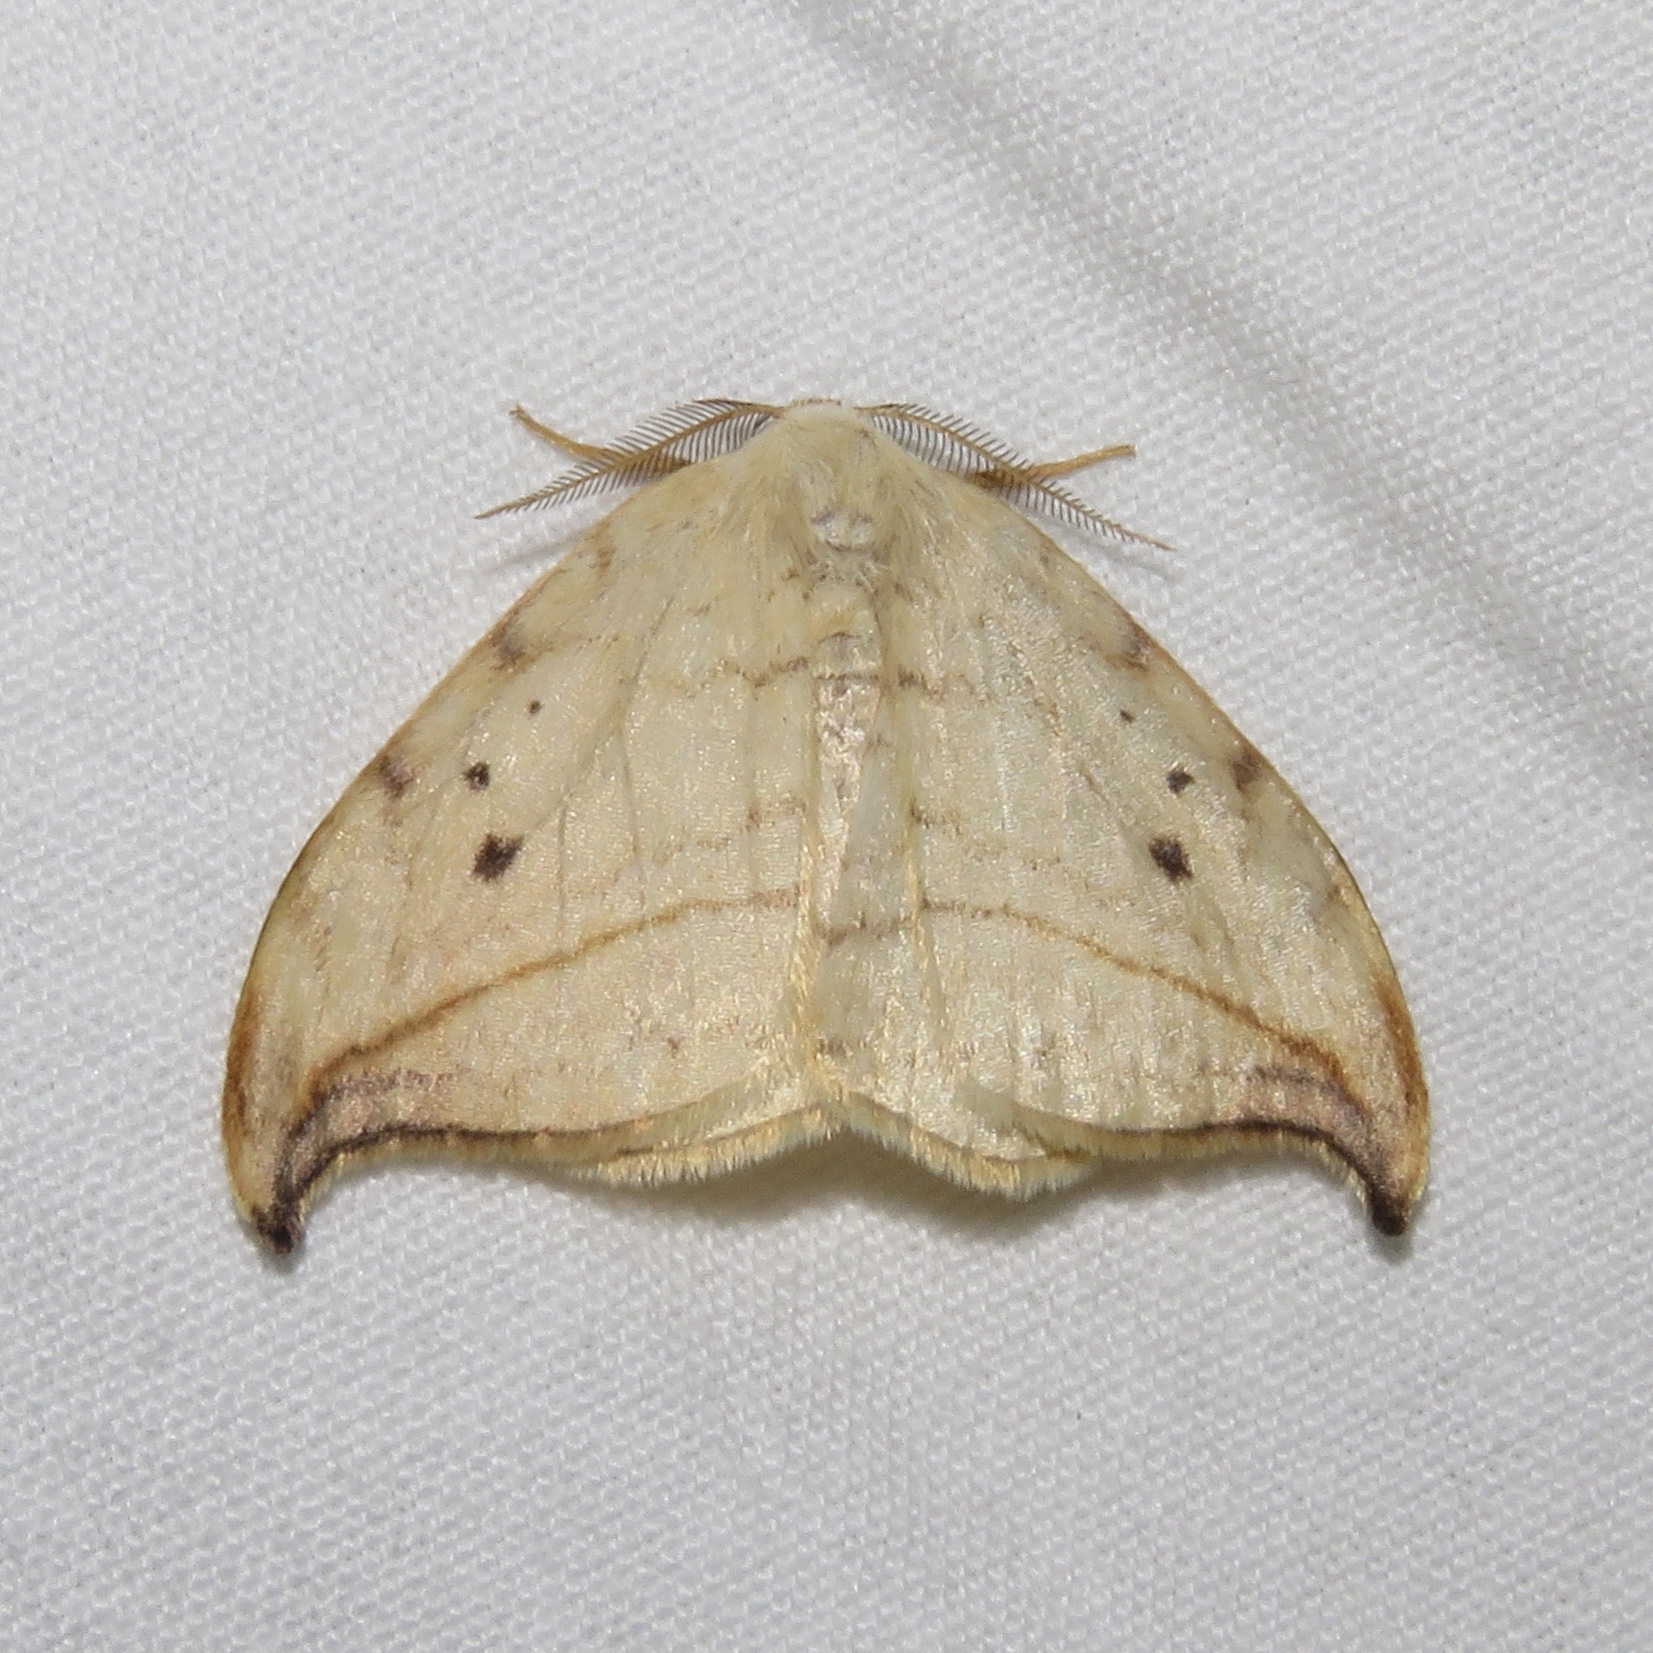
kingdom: Animalia
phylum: Arthropoda
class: Insecta
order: Lepidoptera
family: Drepanidae
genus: Drepana
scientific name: Drepana arcuata
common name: Arched hooktip moth
